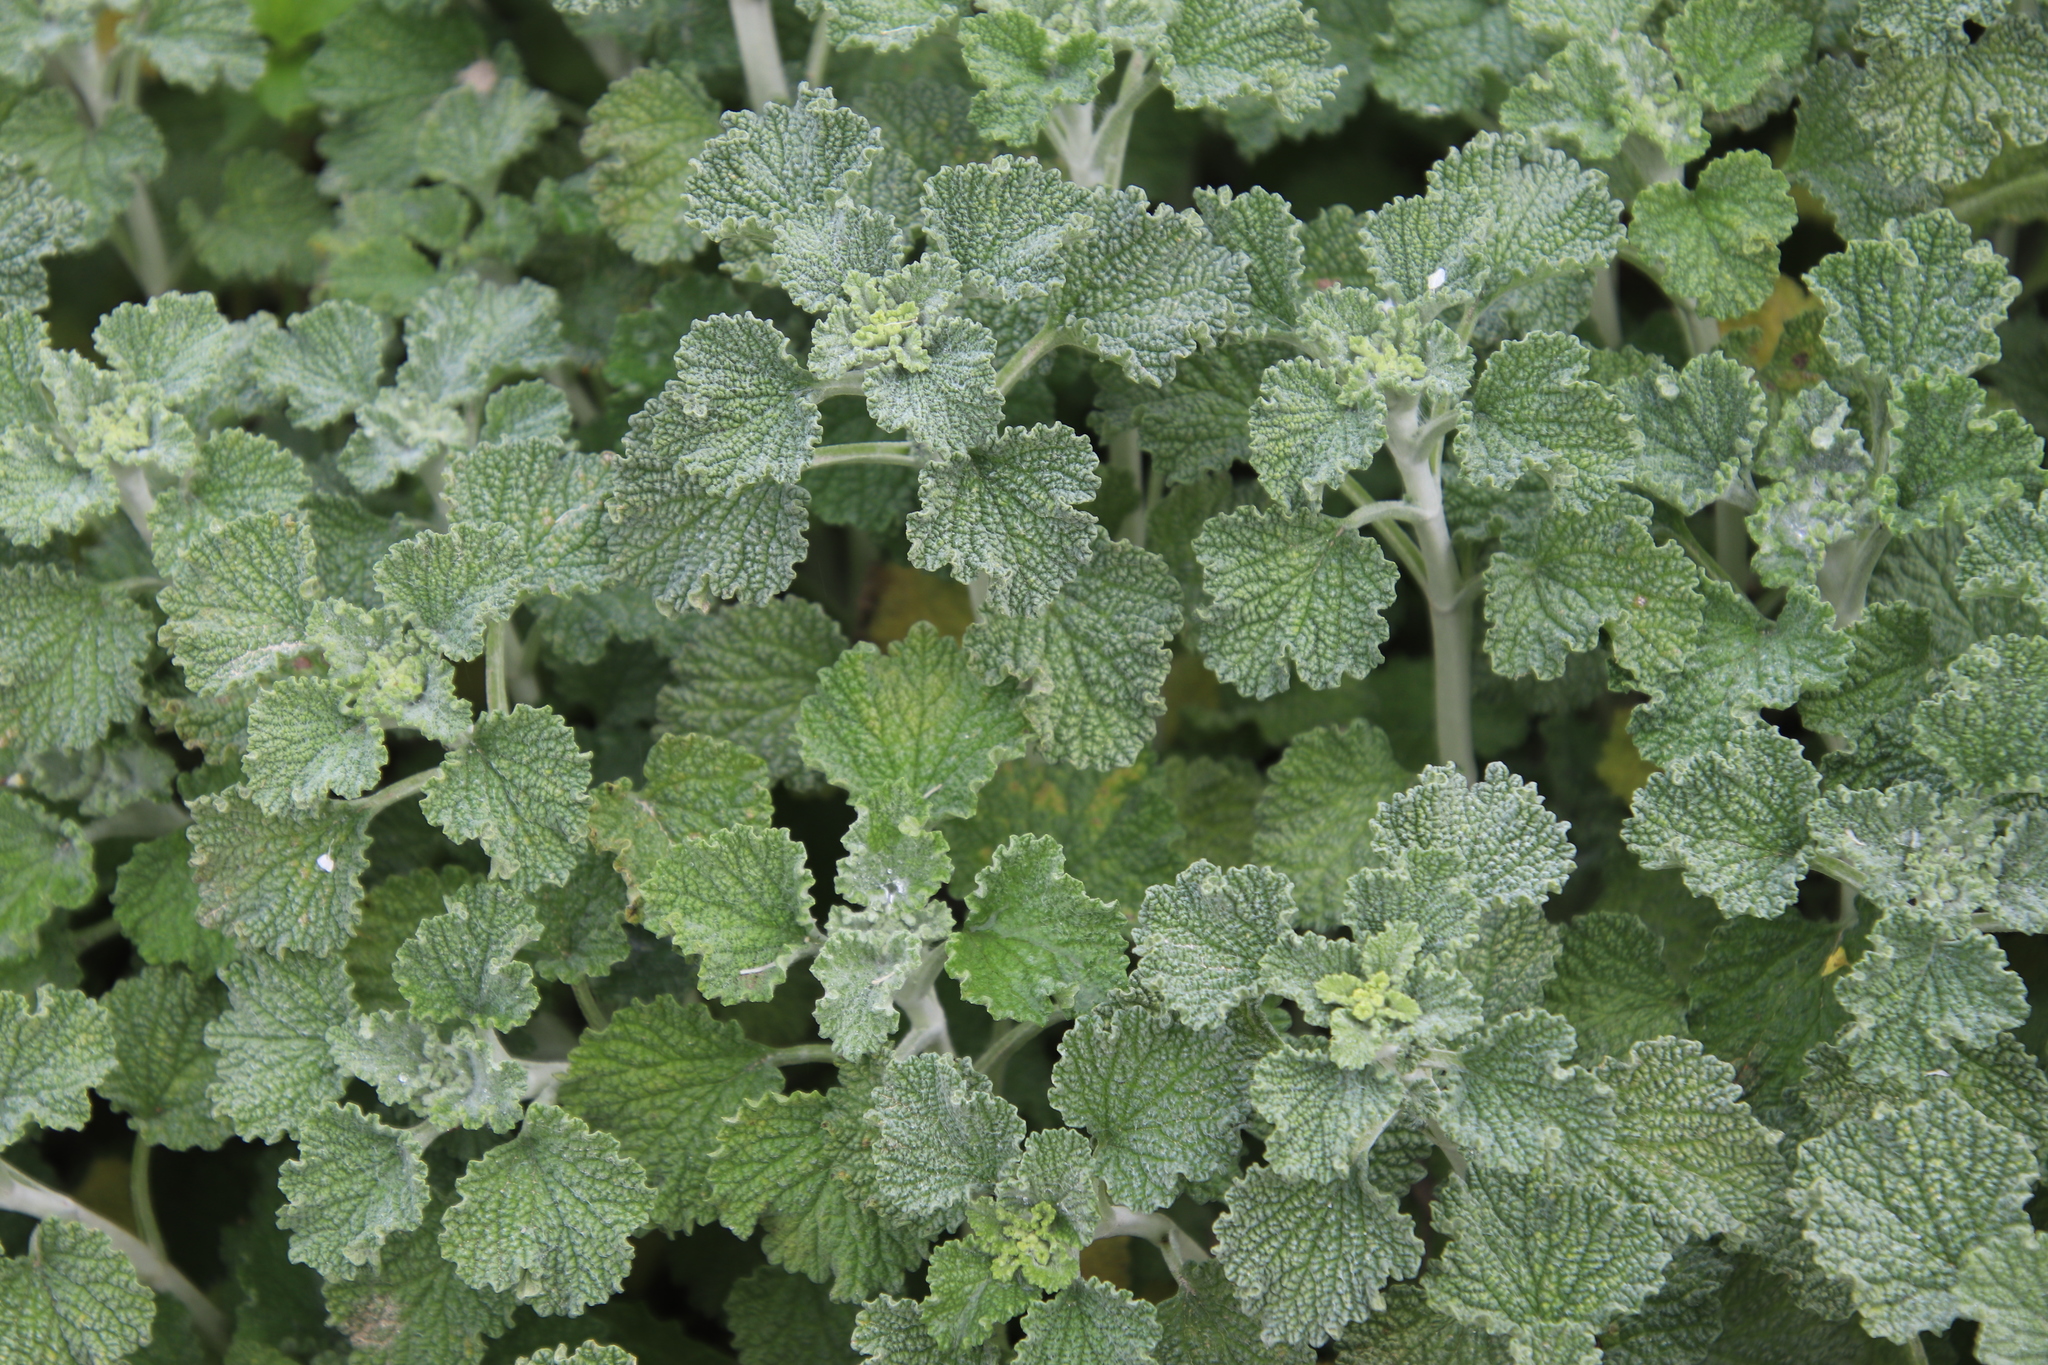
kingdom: Plantae
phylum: Tracheophyta
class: Magnoliopsida
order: Lamiales
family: Lamiaceae
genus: Marrubium
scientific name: Marrubium vulgare
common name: Horehound
